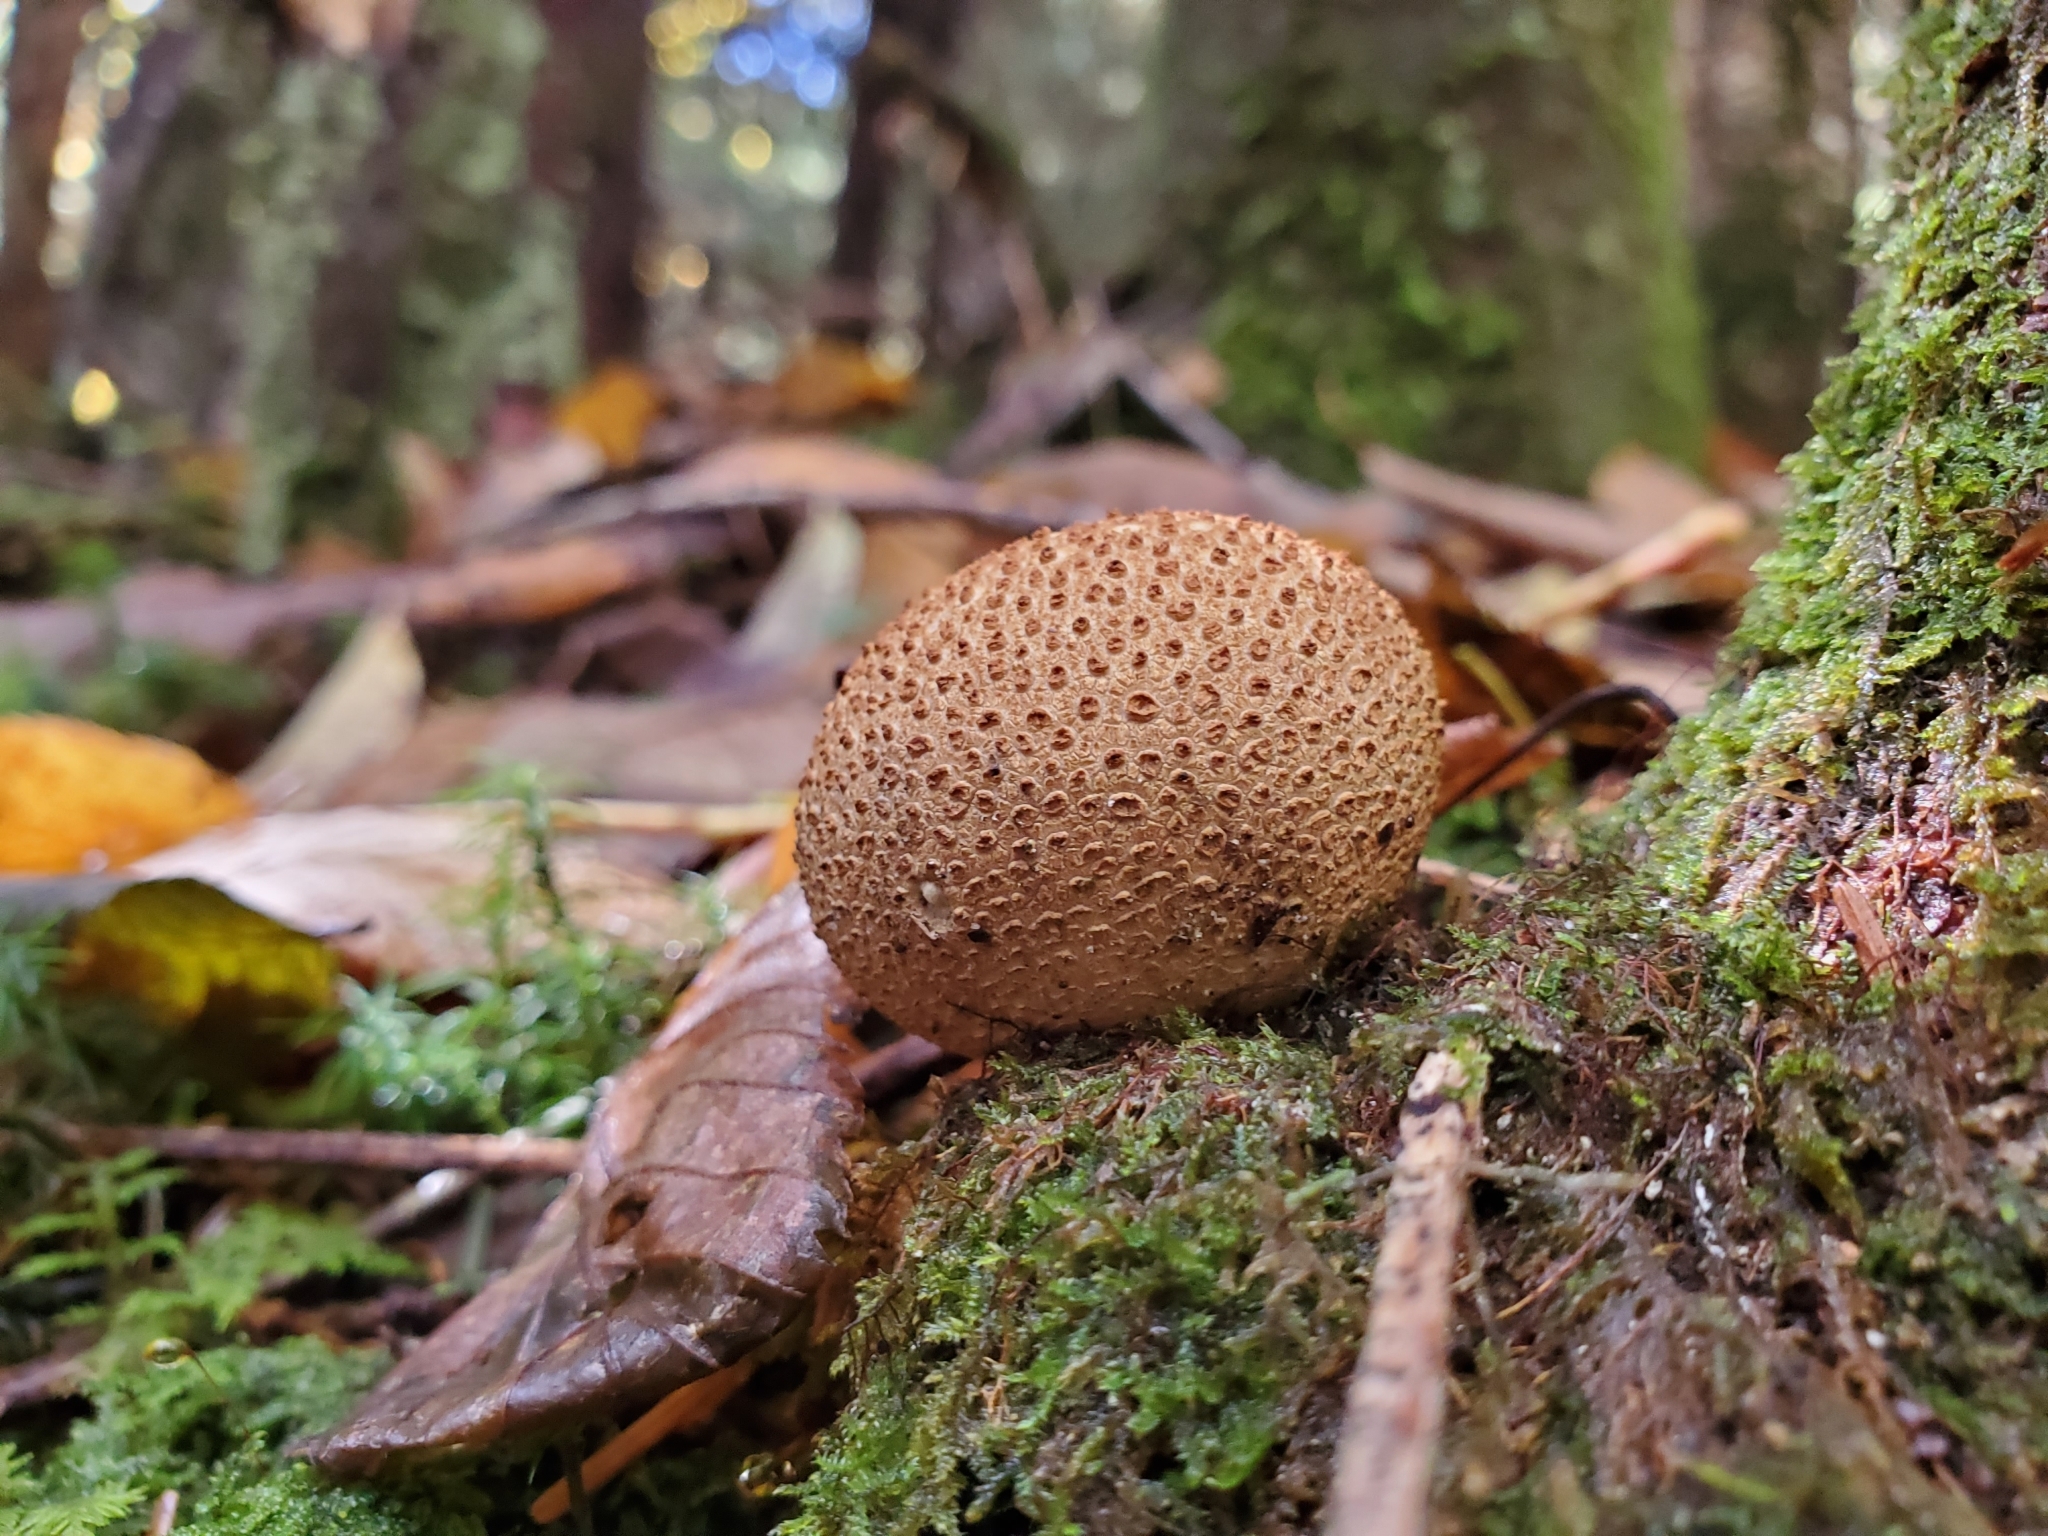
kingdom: Fungi
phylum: Basidiomycota
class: Agaricomycetes
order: Boletales
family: Sclerodermataceae
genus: Scleroderma
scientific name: Scleroderma citrinum
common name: Common earthball
